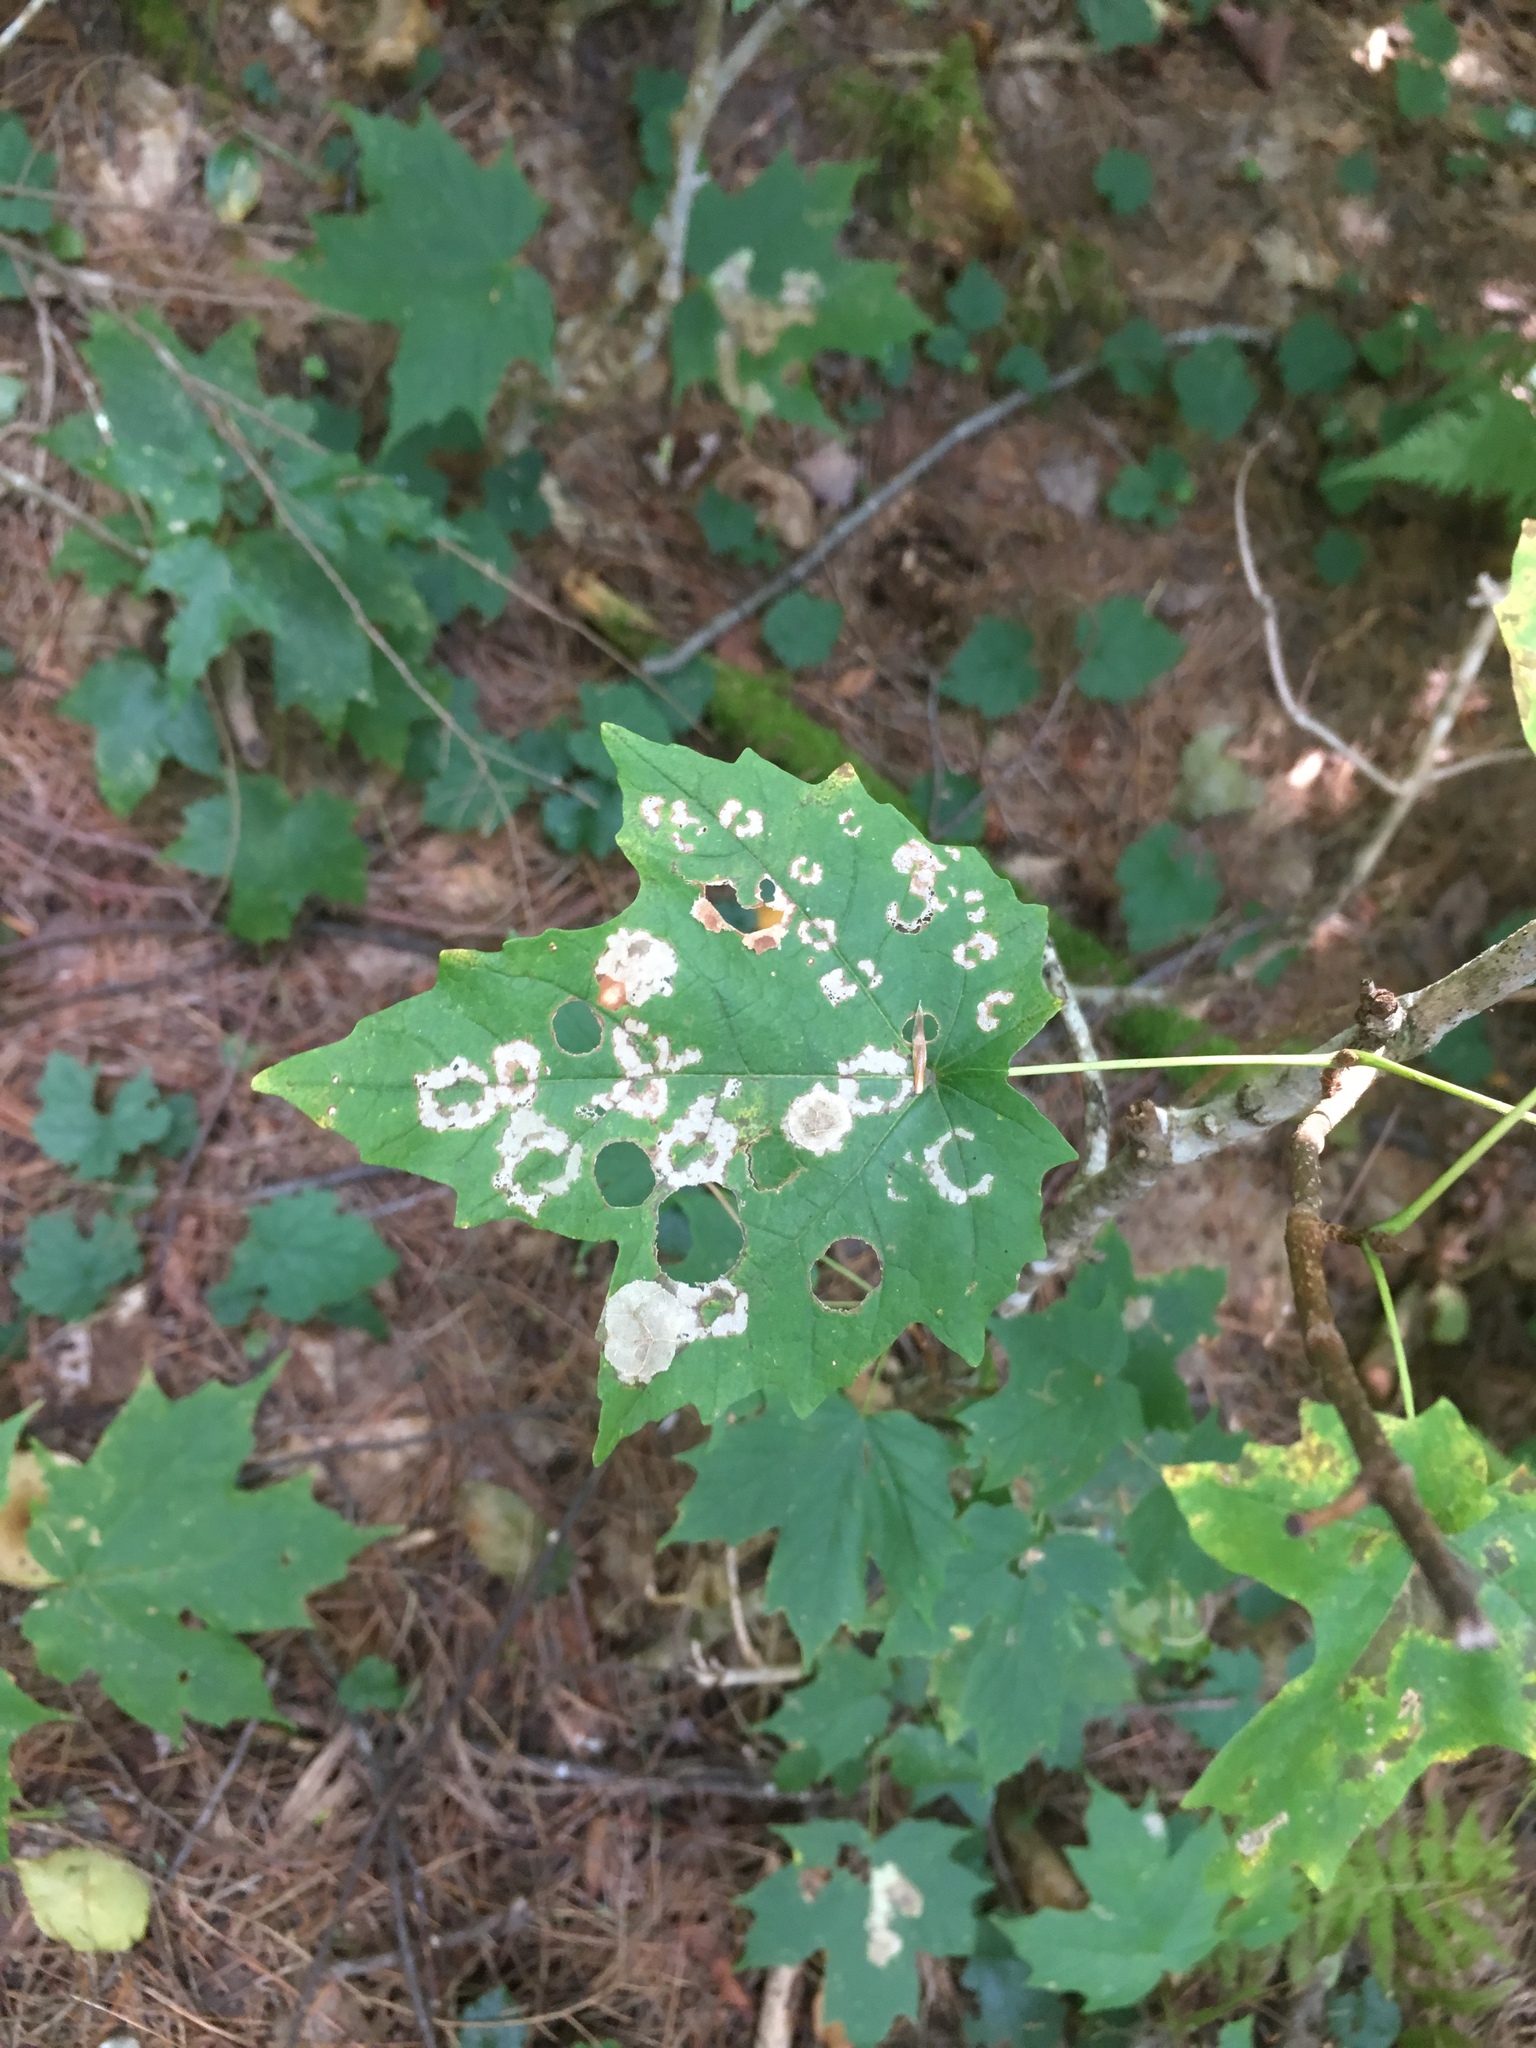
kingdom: Animalia
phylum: Arthropoda
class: Insecta
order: Lepidoptera
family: Incurvariidae
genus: Paraclemensia
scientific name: Paraclemensia acerifoliella
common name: Maple leafcutter
